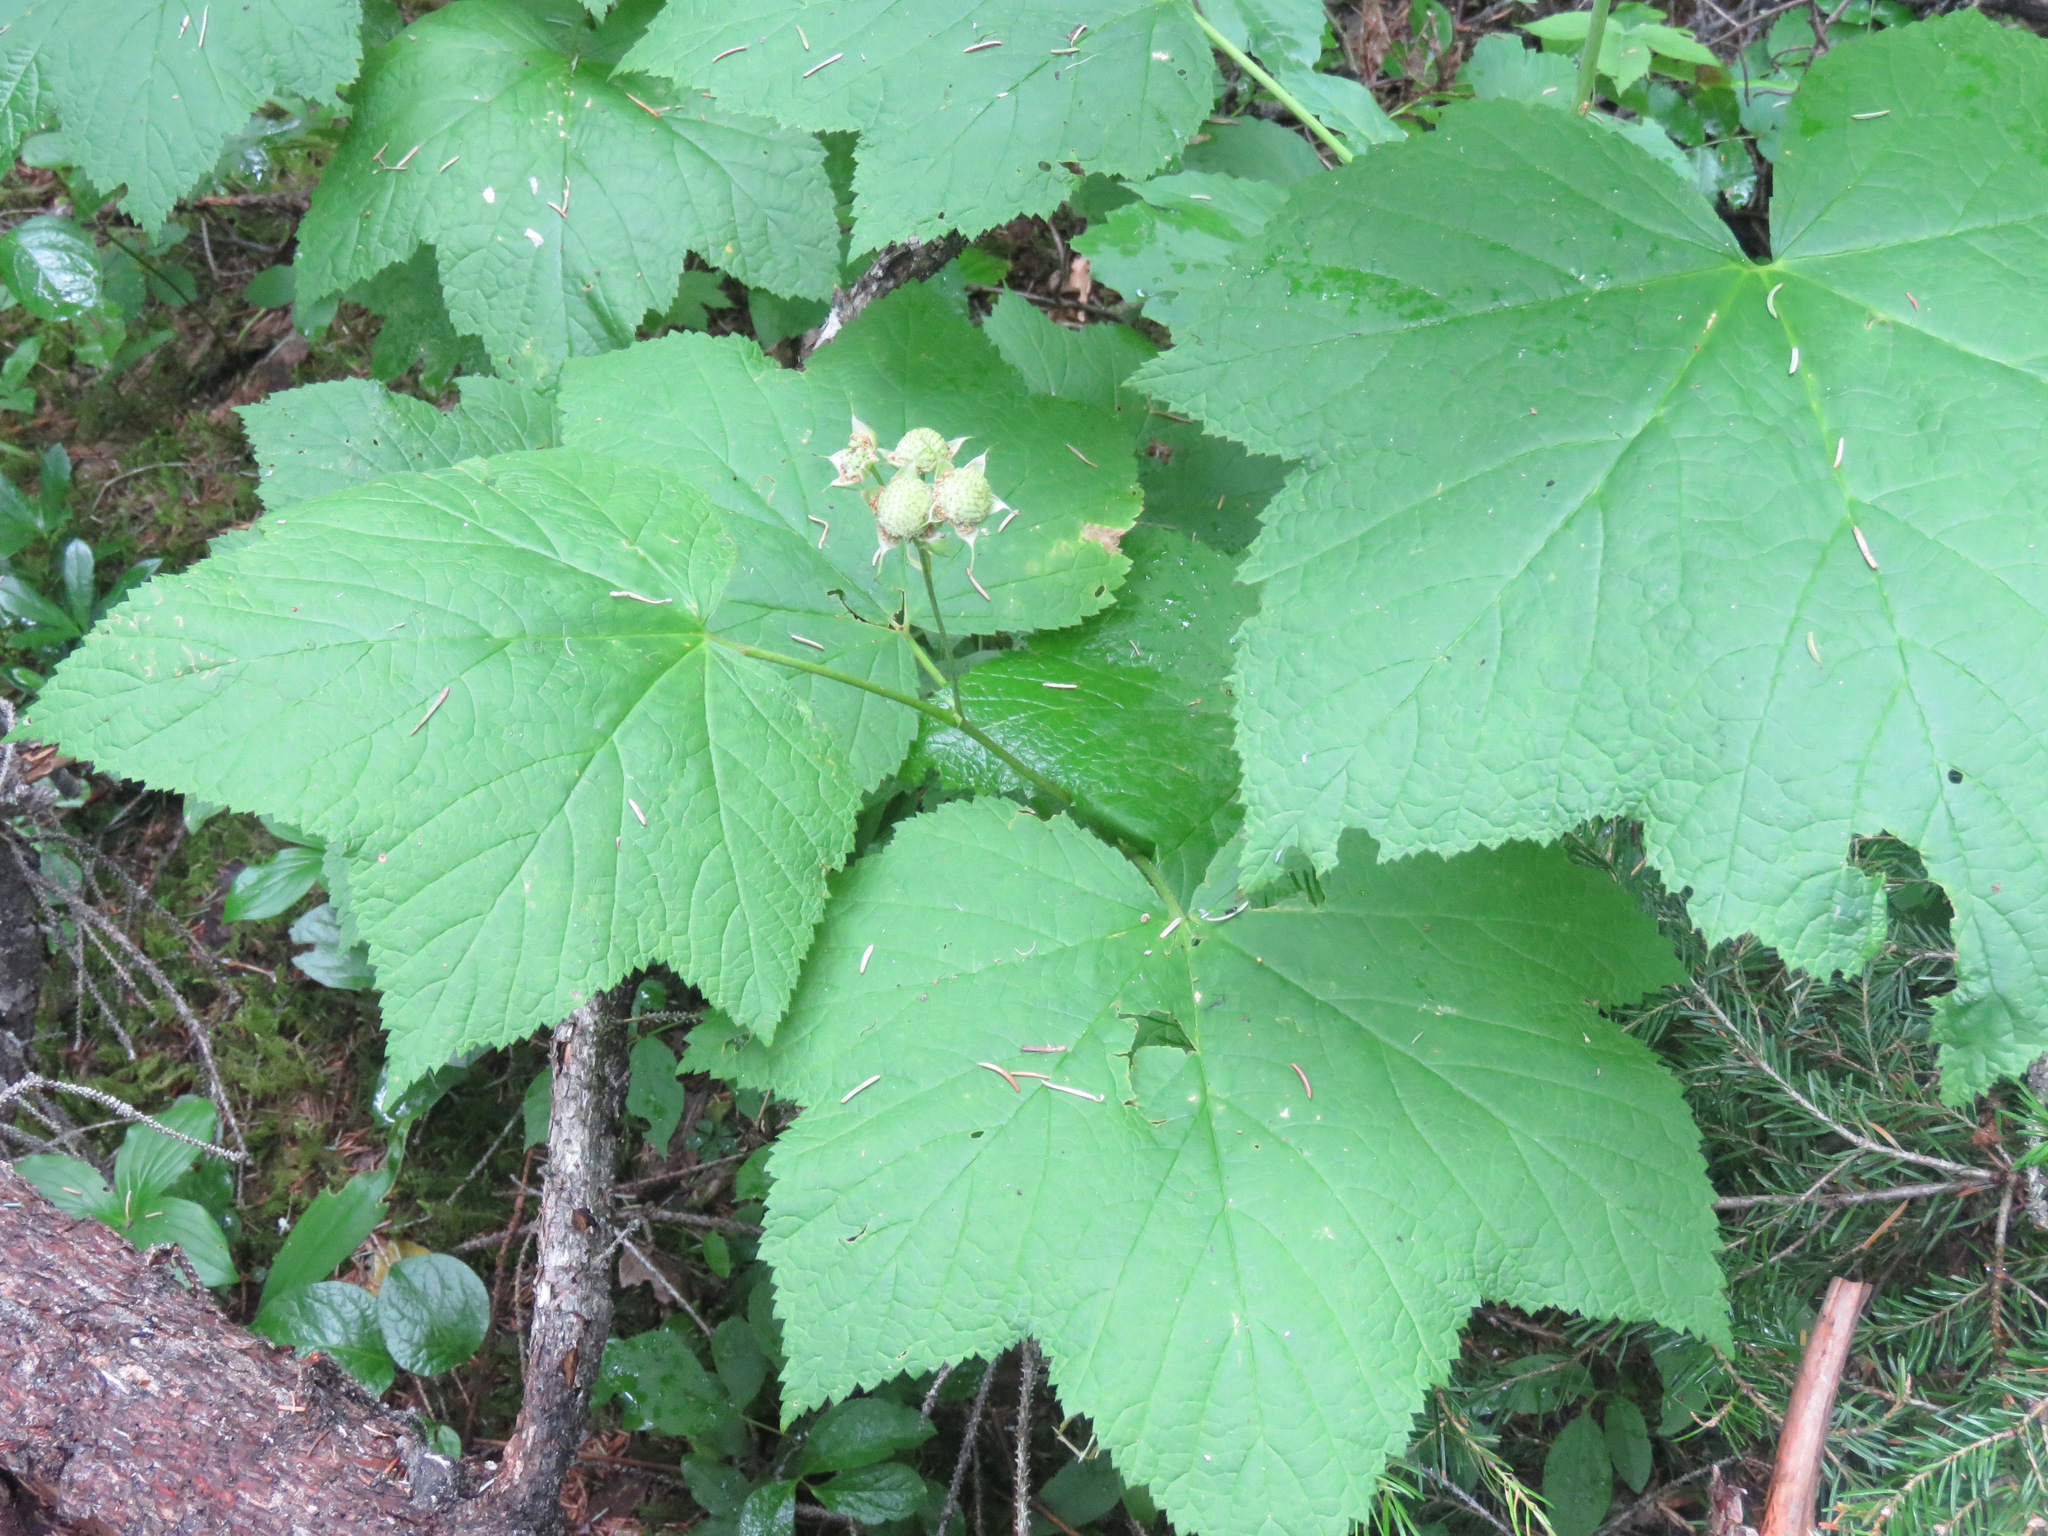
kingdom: Plantae
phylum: Tracheophyta
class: Magnoliopsida
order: Rosales
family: Rosaceae
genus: Rubus
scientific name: Rubus parviflorus
